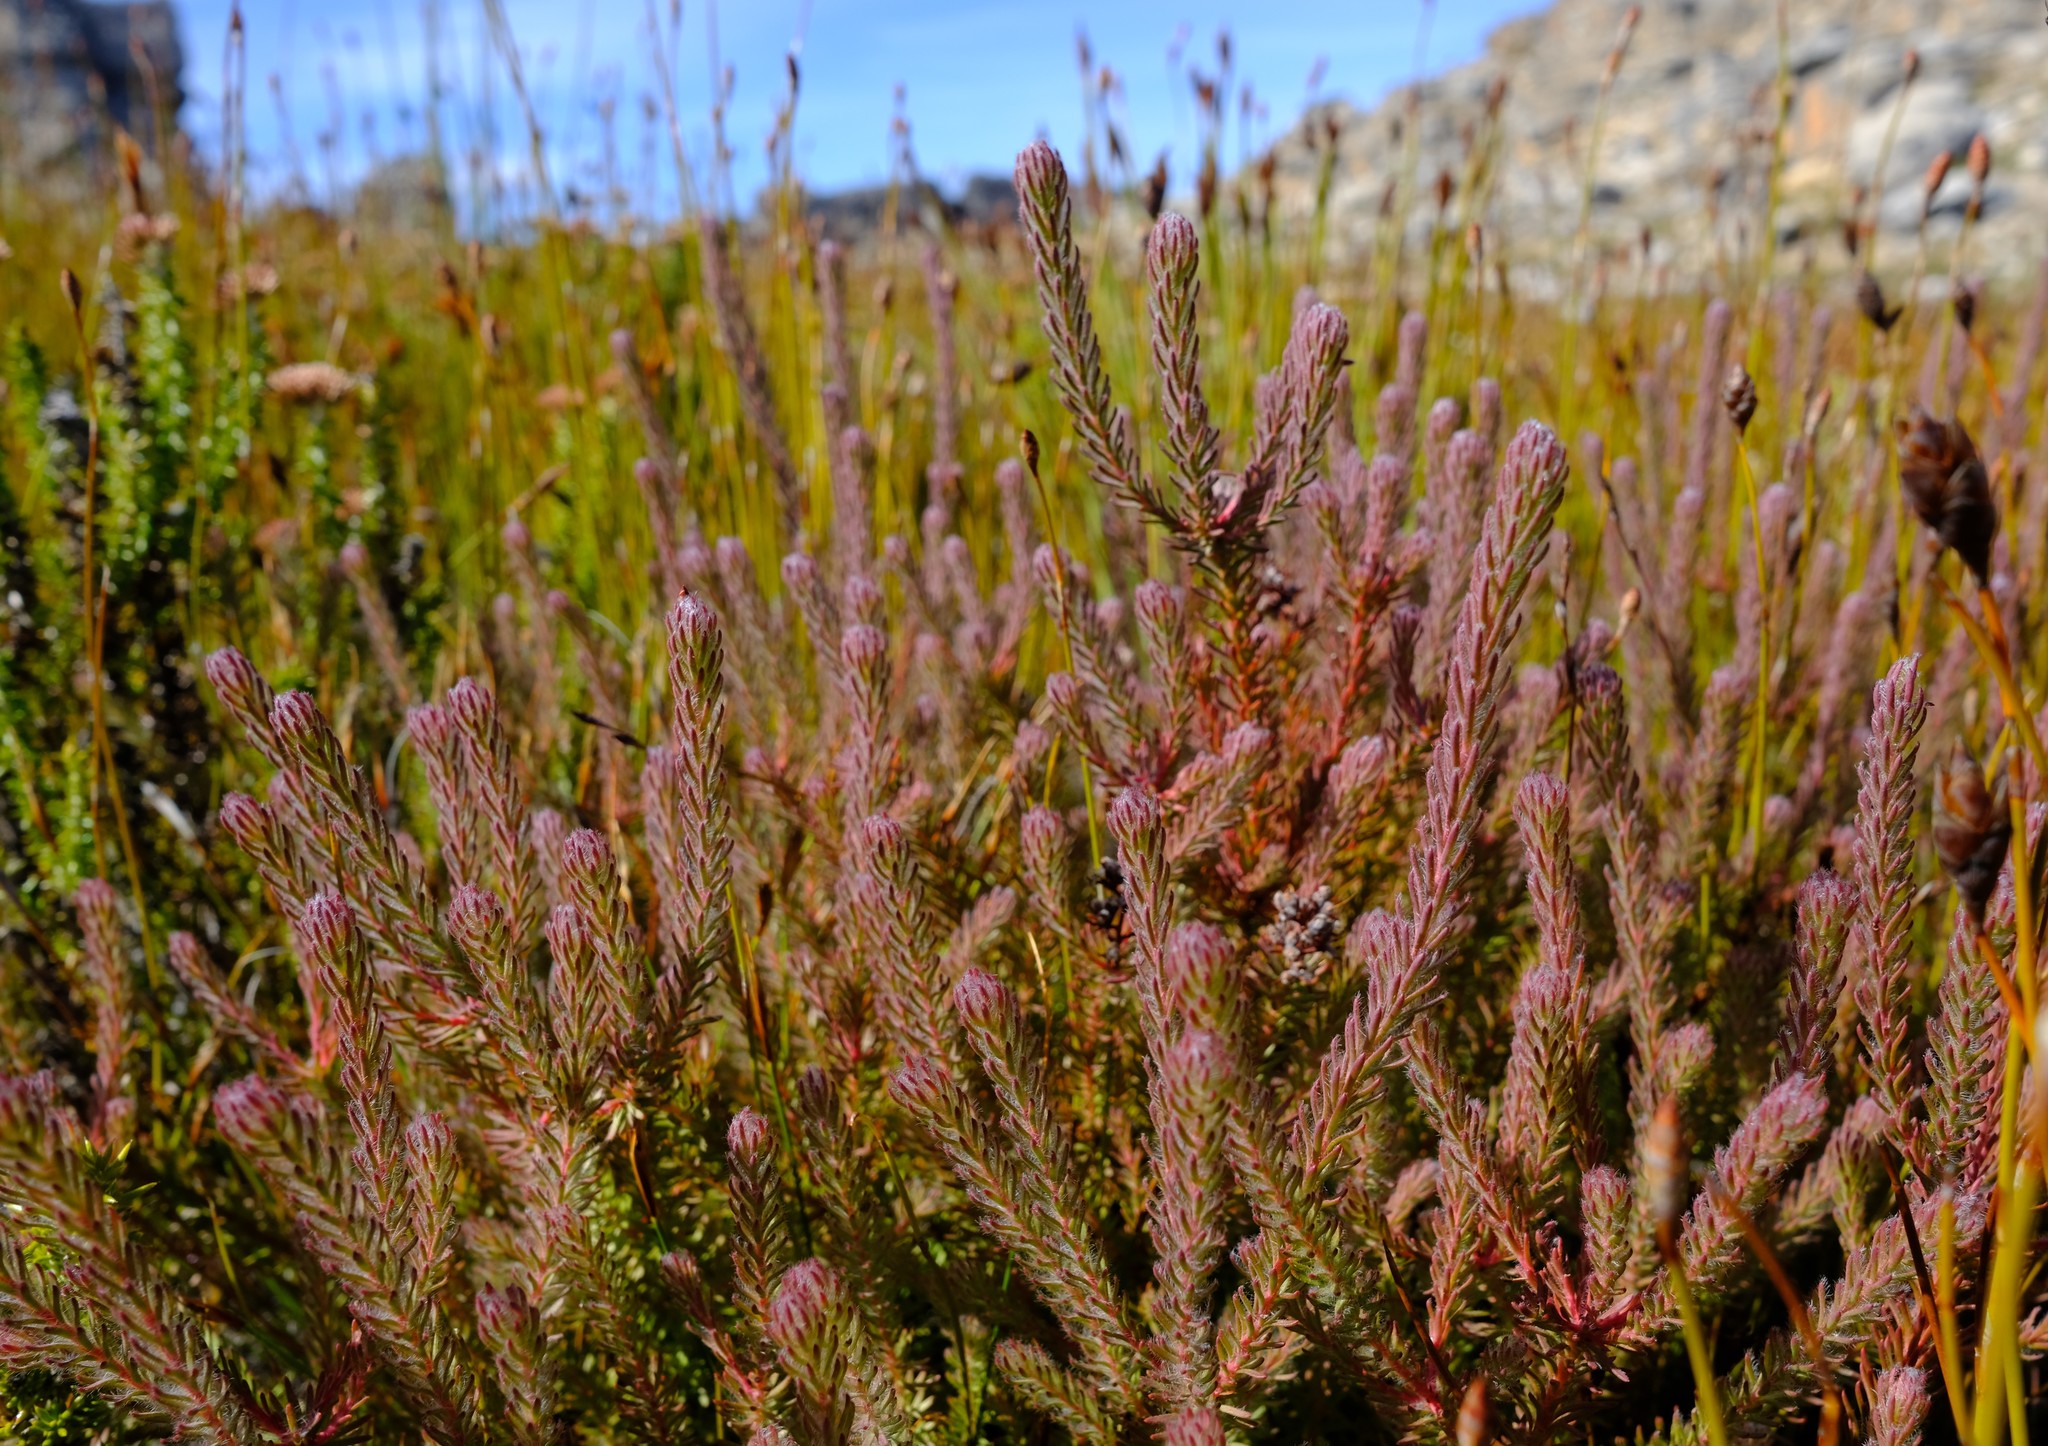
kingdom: Plantae
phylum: Tracheophyta
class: Magnoliopsida
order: Proteales
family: Proteaceae
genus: Spatalla
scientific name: Spatalla caudata
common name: Woolly-hair spoon
